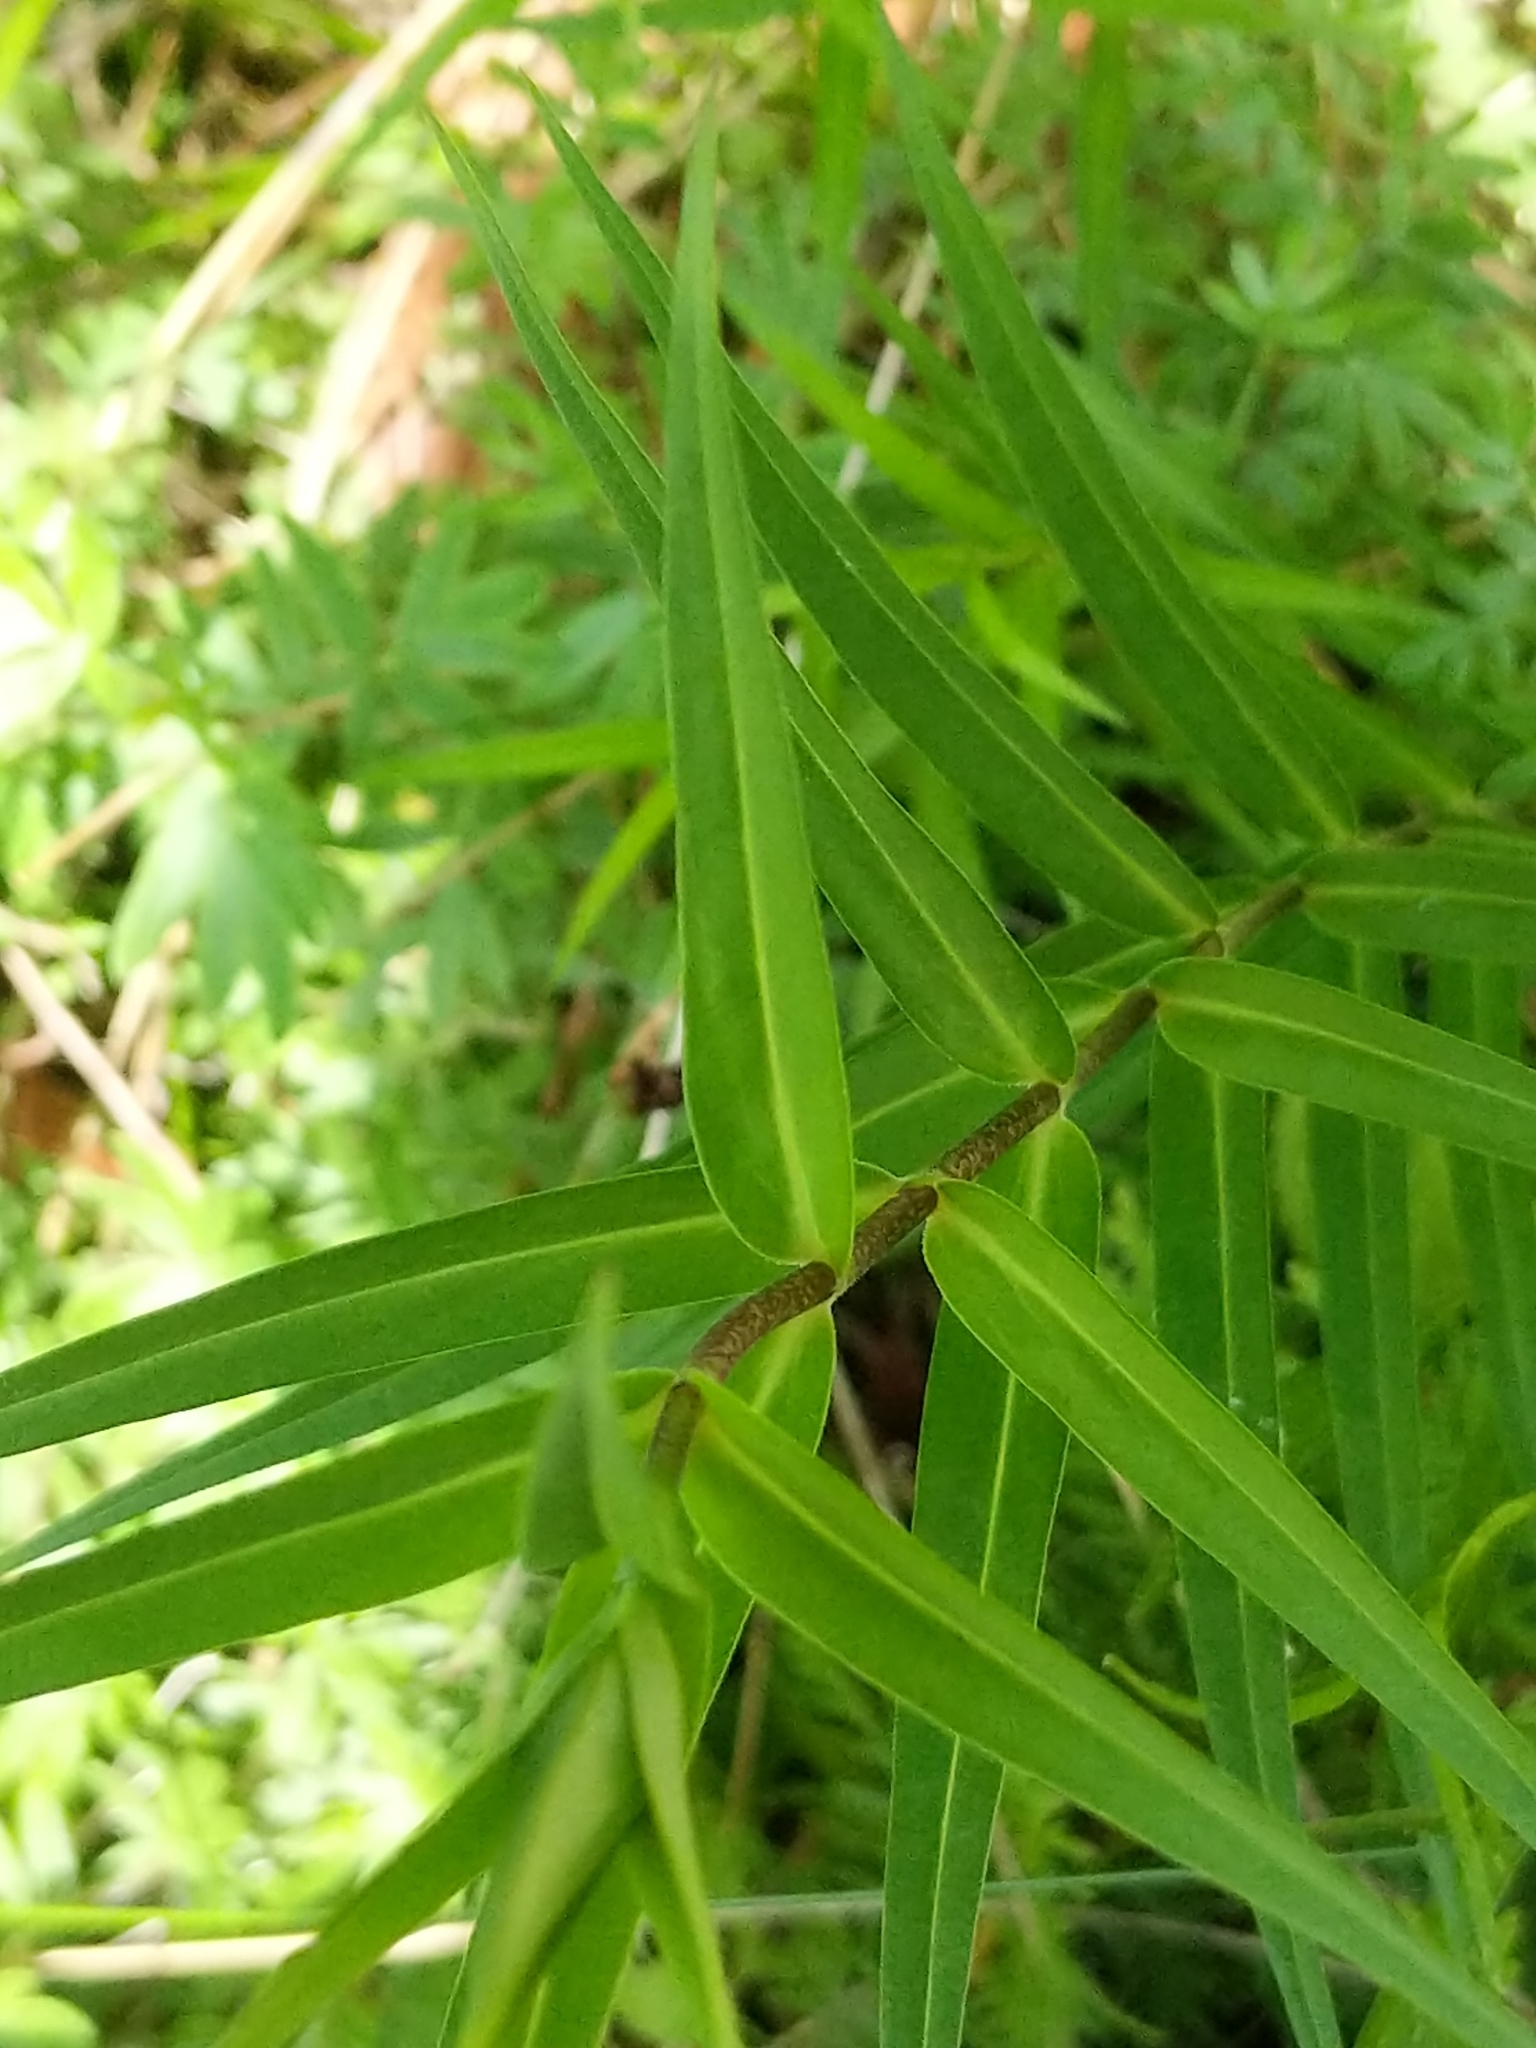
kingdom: Plantae
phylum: Tracheophyta
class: Magnoliopsida
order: Ericales
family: Polemoniaceae
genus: Phlox
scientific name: Phlox maculata
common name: Meadow phlox
